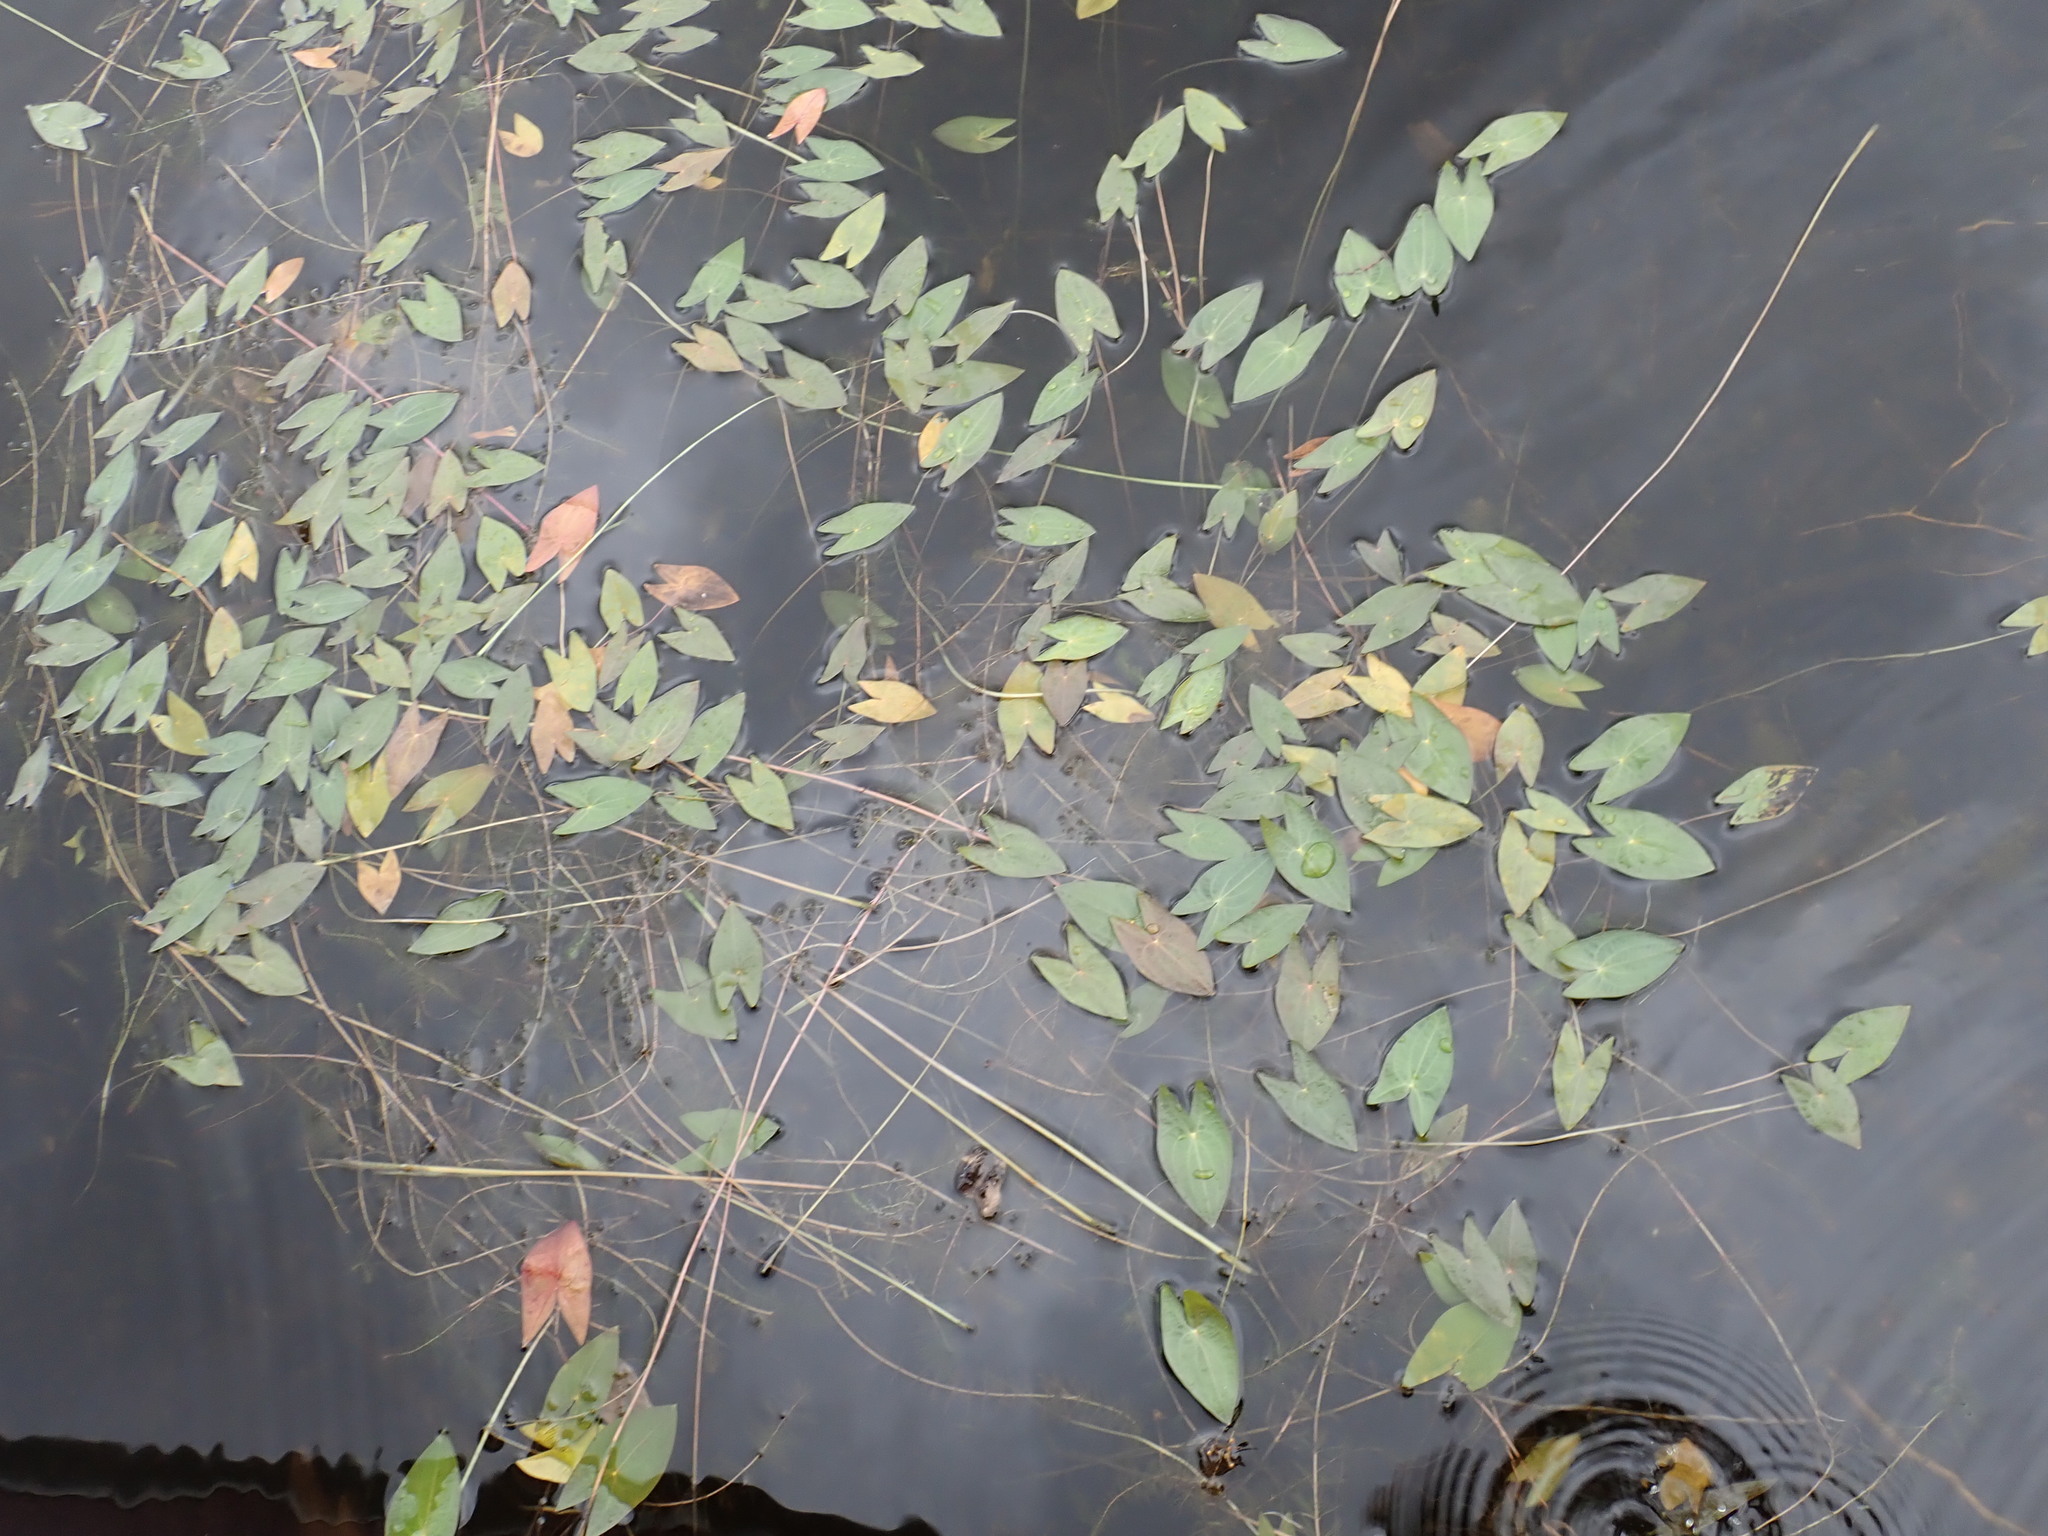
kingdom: Plantae
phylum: Tracheophyta
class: Liliopsida
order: Alismatales
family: Alismataceae
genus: Sagittaria
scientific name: Sagittaria cuneata
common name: Northern arrowhead
